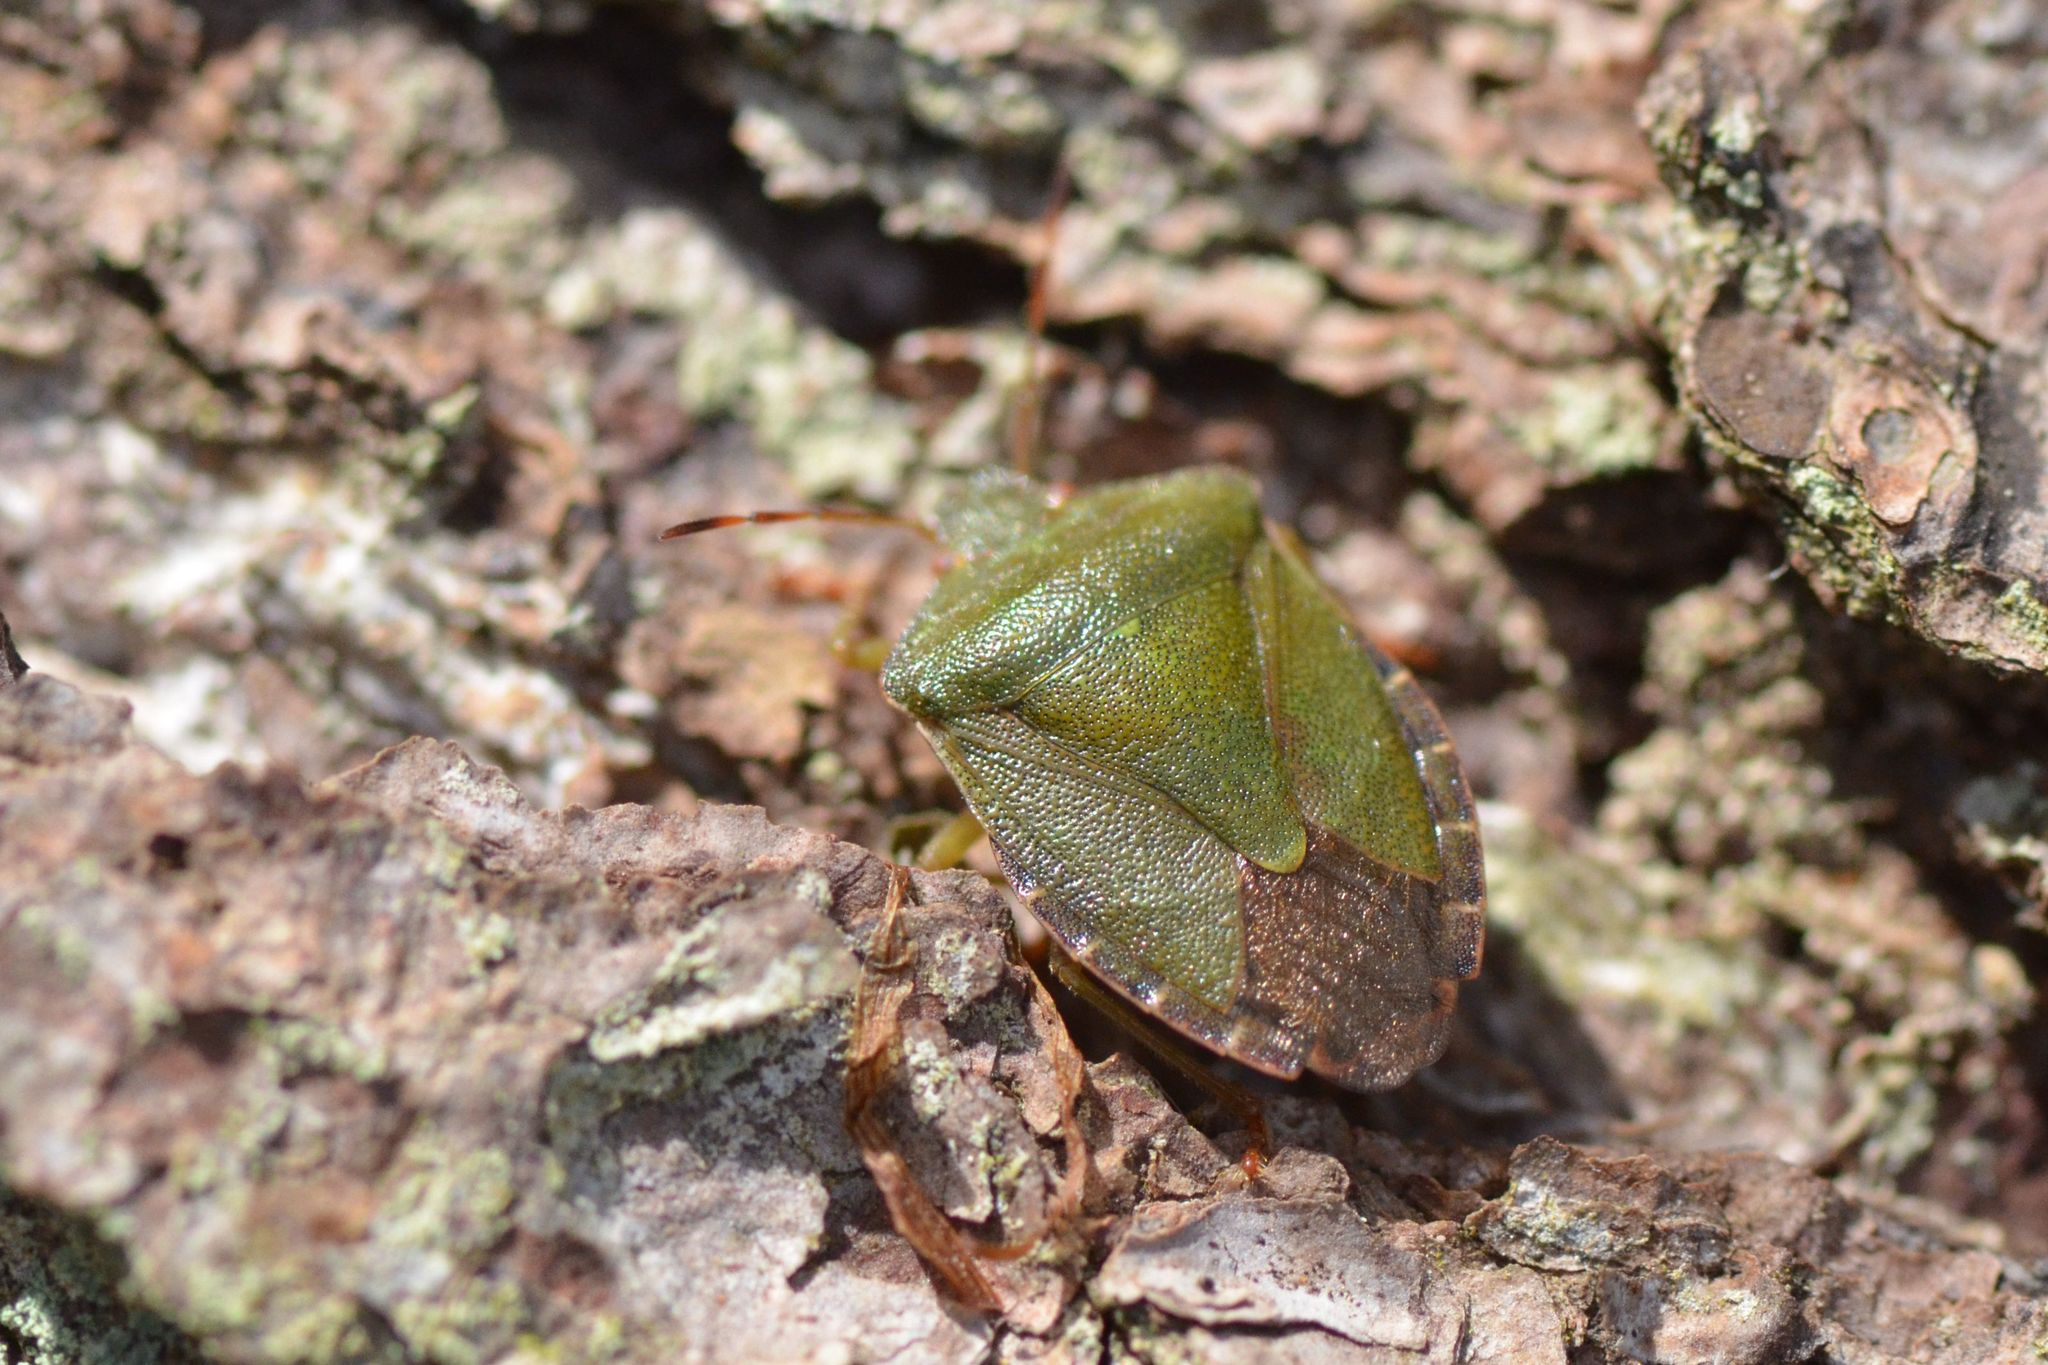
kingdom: Animalia
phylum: Arthropoda
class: Insecta
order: Hemiptera
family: Pentatomidae
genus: Palomena
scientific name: Palomena prasina
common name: Green shieldbug
